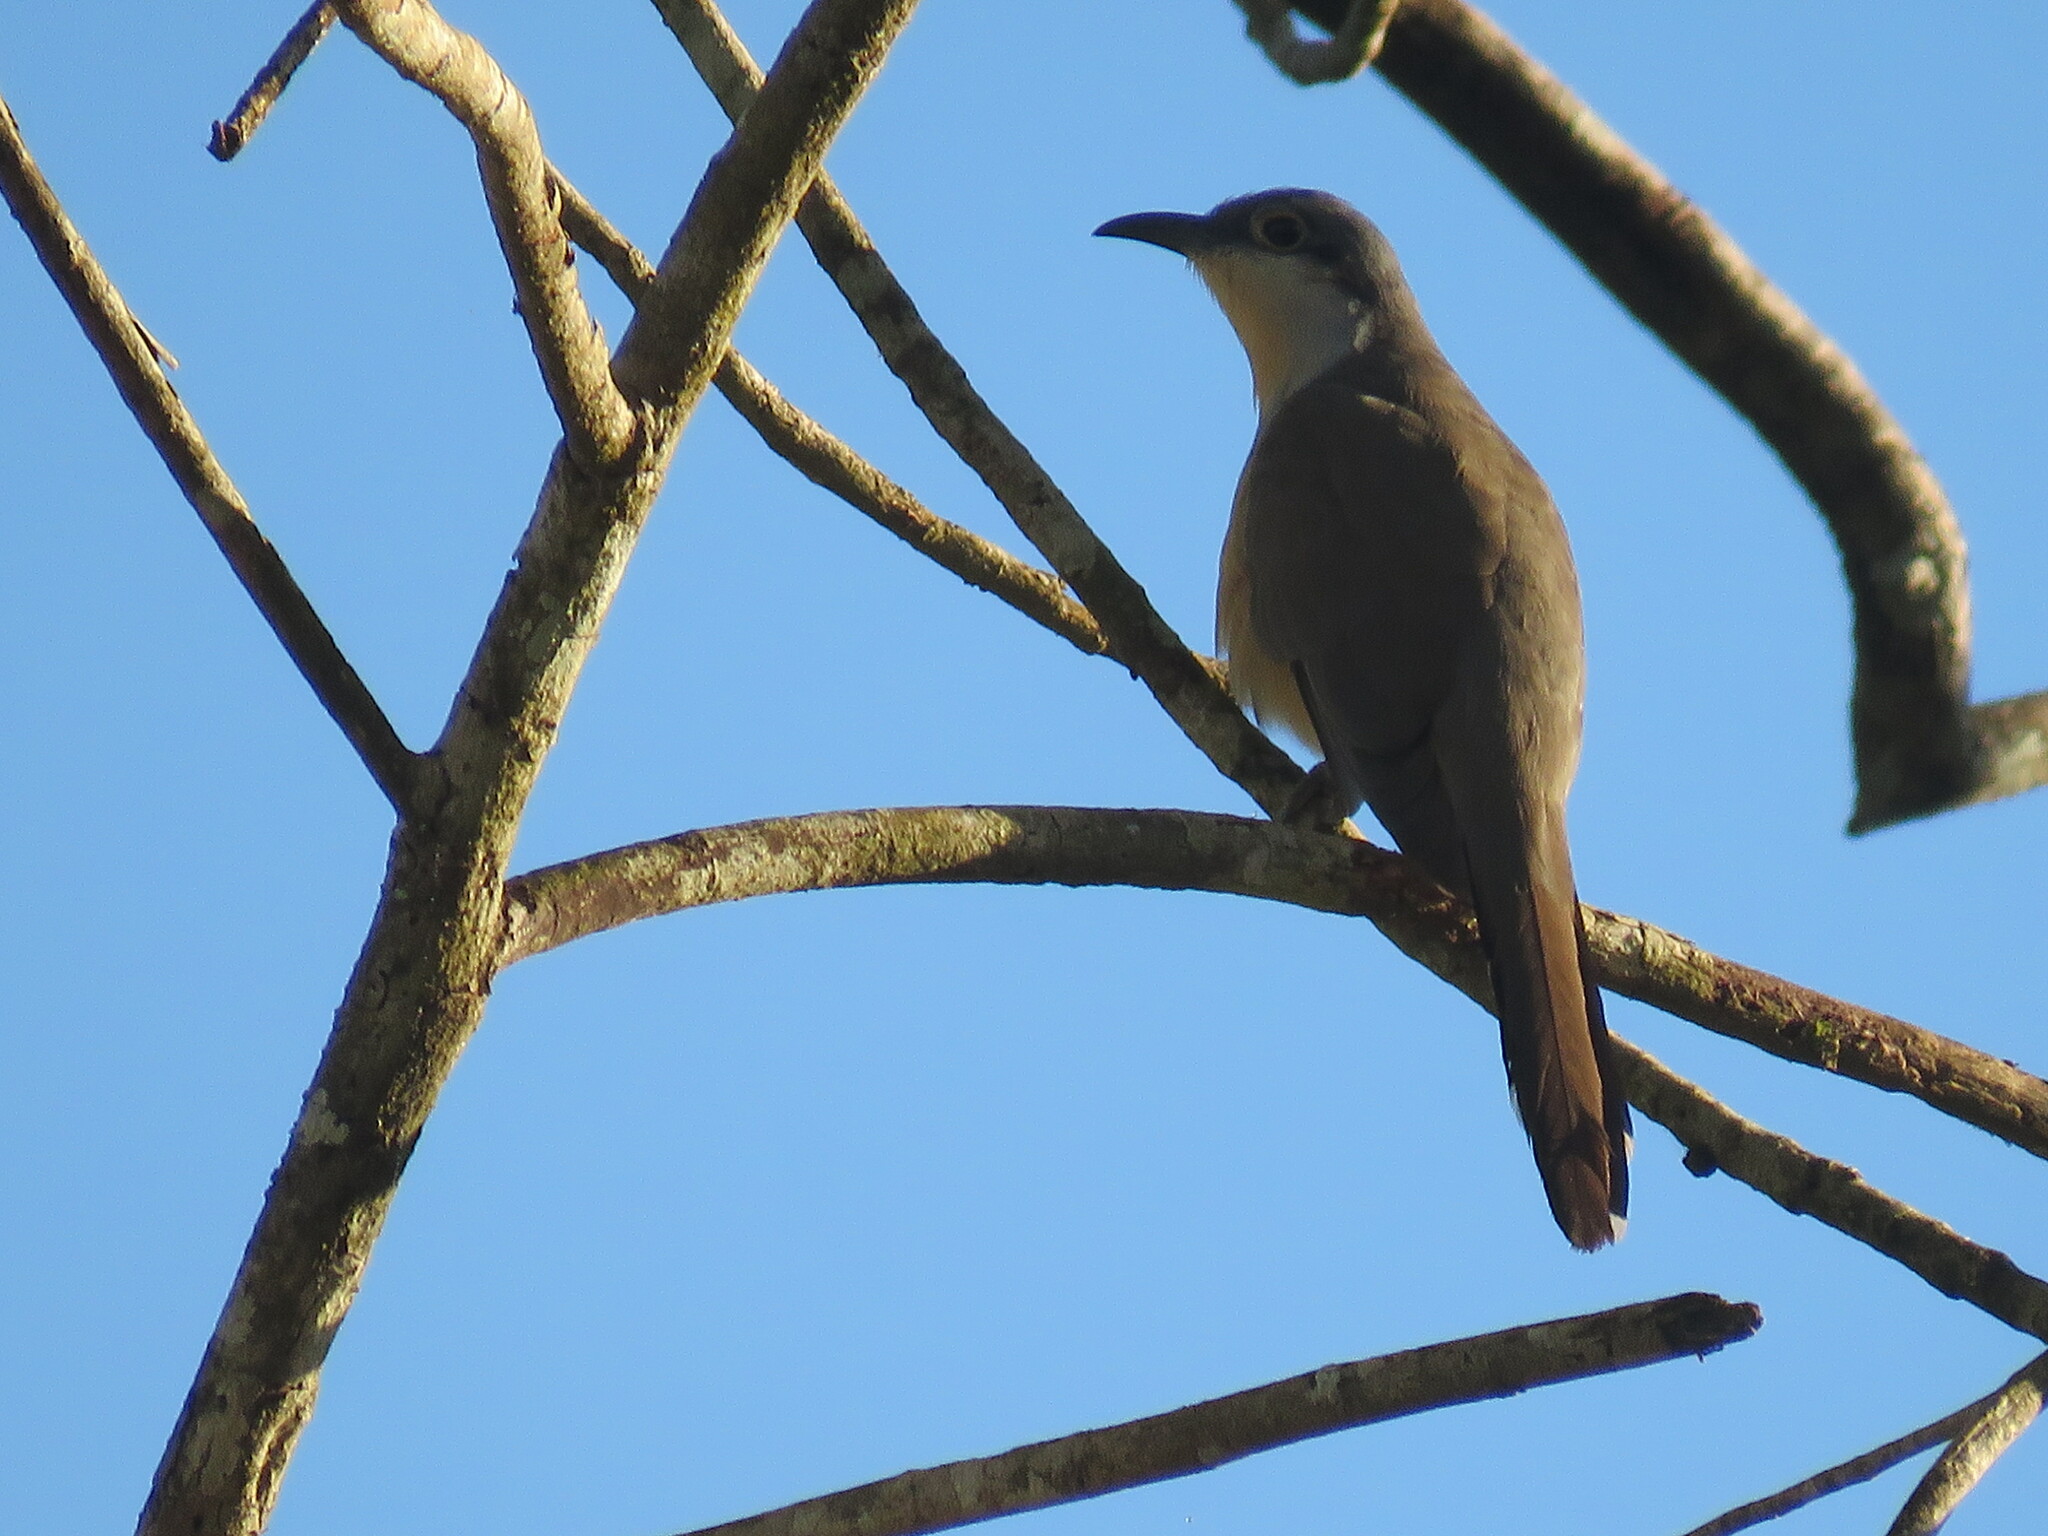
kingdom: Animalia
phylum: Chordata
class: Aves
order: Cuculiformes
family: Cuculidae
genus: Coccyzus
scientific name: Coccyzus melacoryphus
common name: Dark-billed cuckoo
